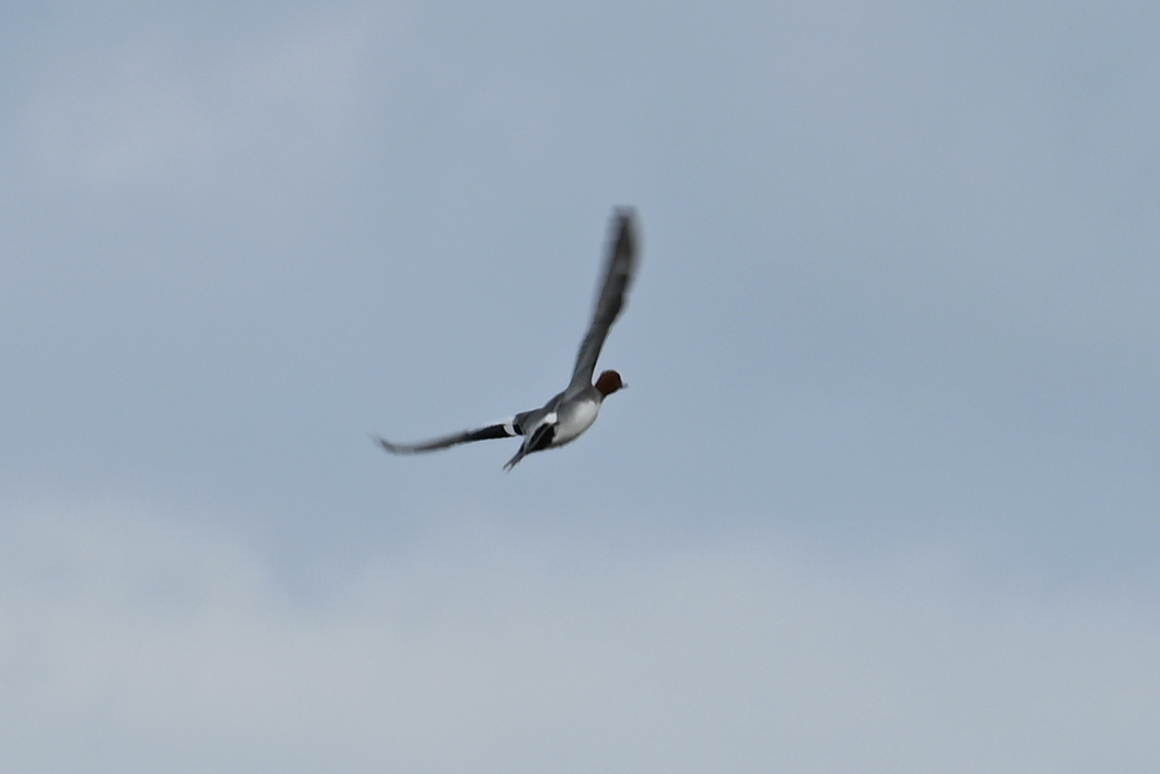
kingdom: Animalia
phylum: Chordata
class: Aves
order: Anseriformes
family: Anatidae
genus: Anas
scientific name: Anas acuta
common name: Northern pintail
